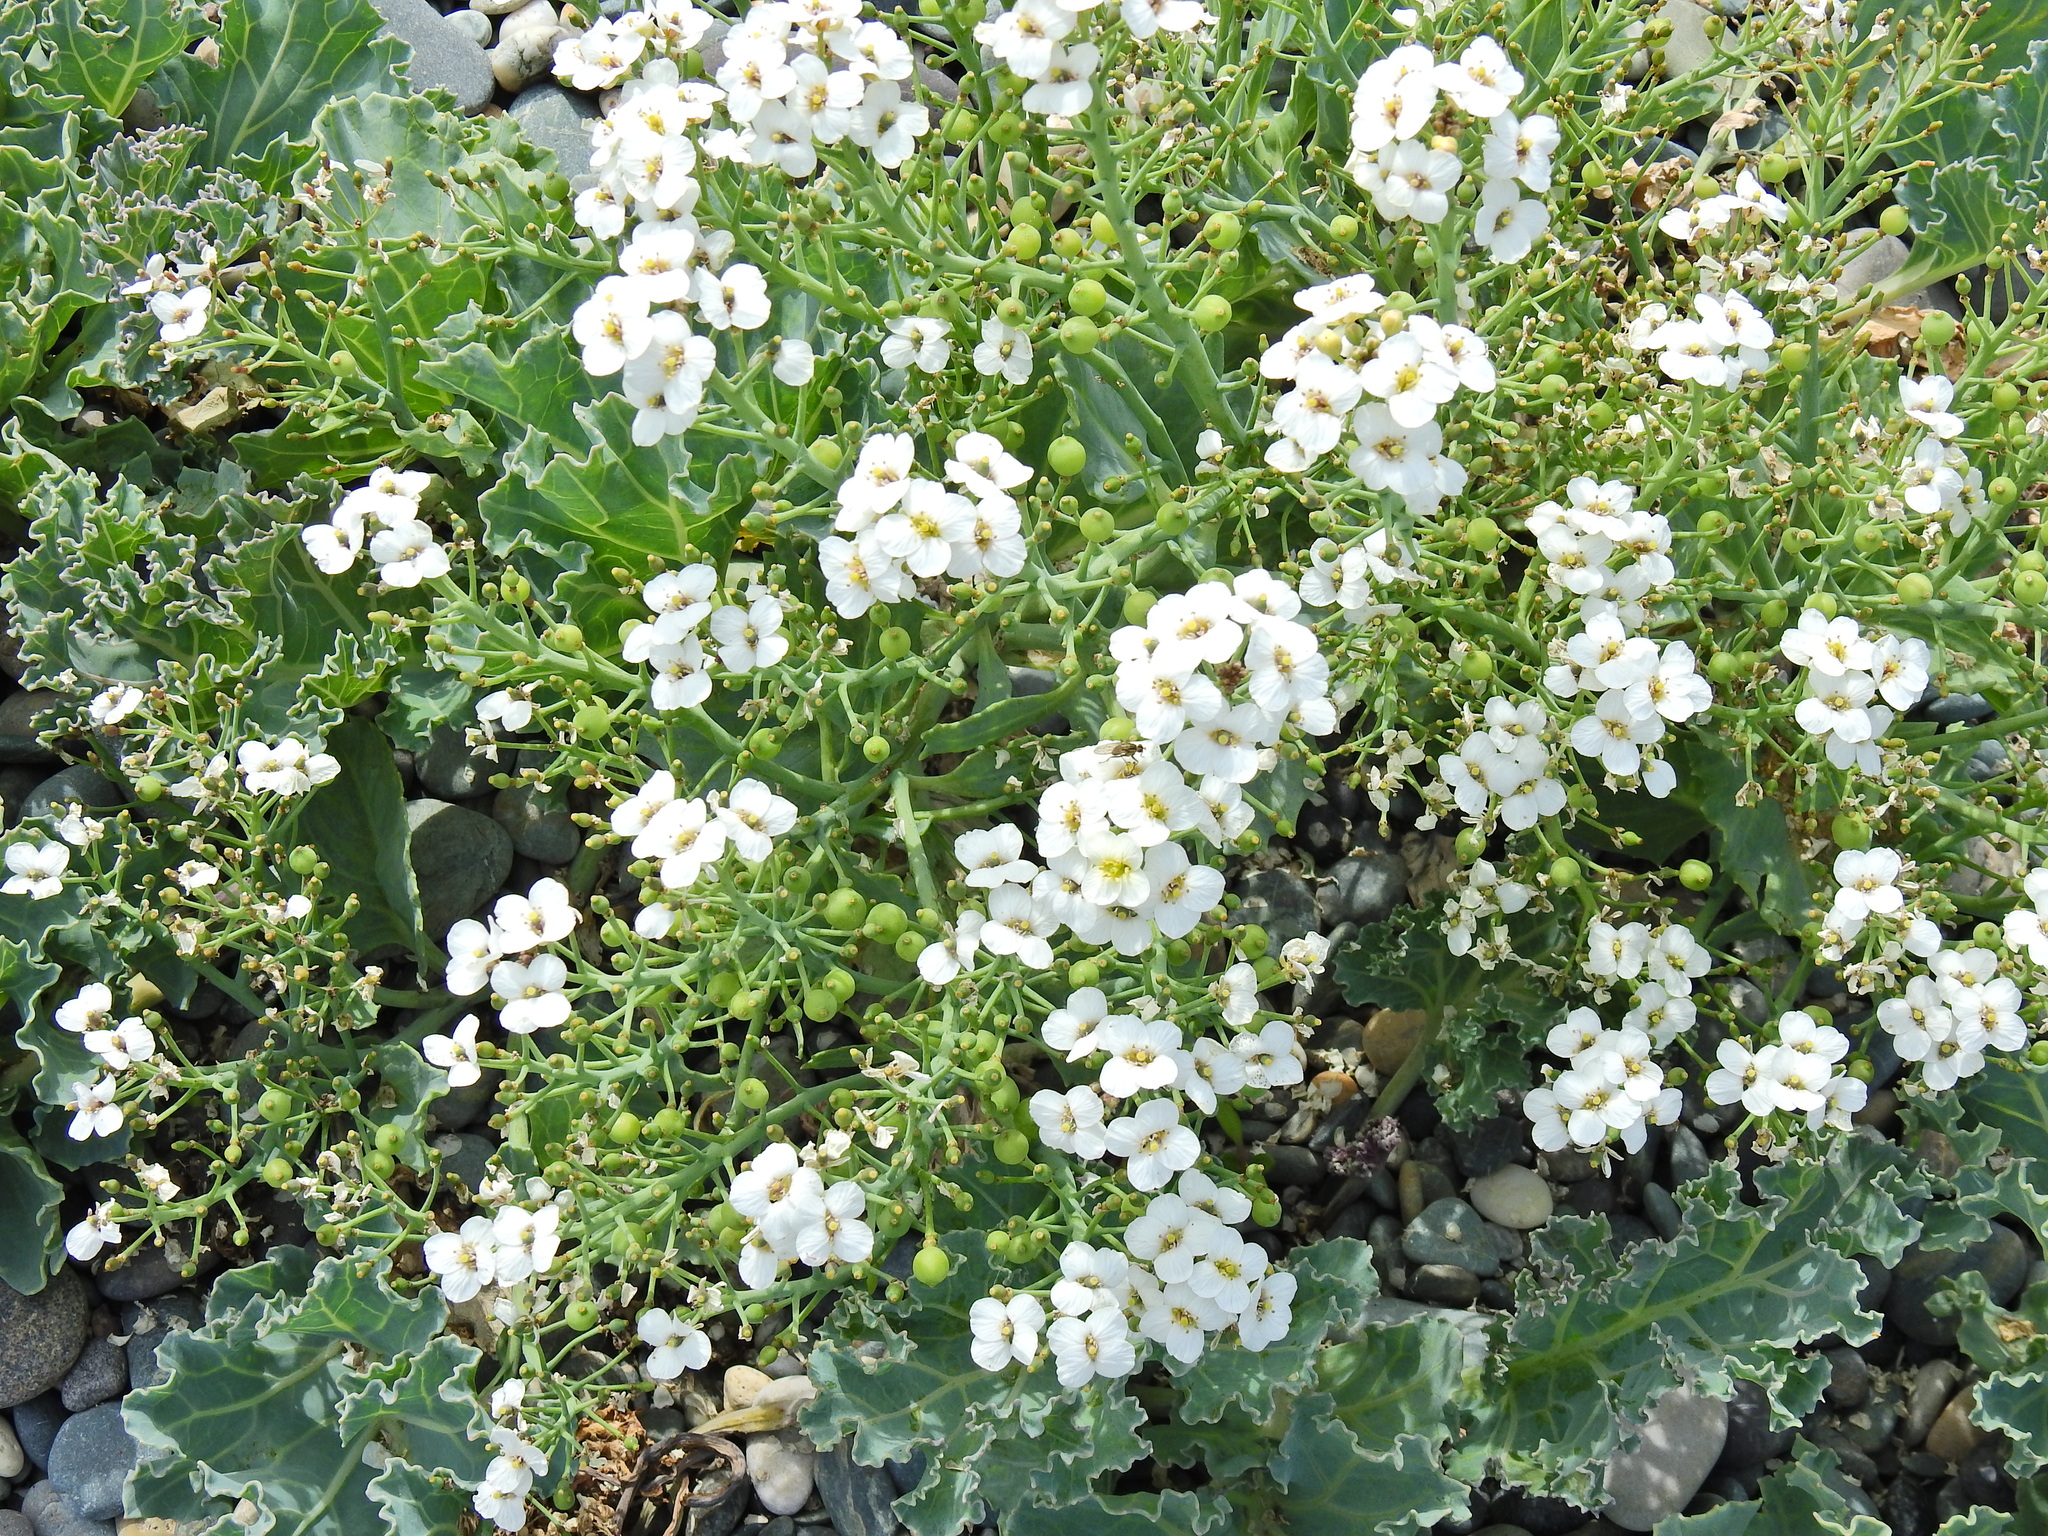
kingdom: Plantae
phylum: Tracheophyta
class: Magnoliopsida
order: Brassicales
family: Brassicaceae
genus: Crambe
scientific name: Crambe maritima
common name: Sea-kale
